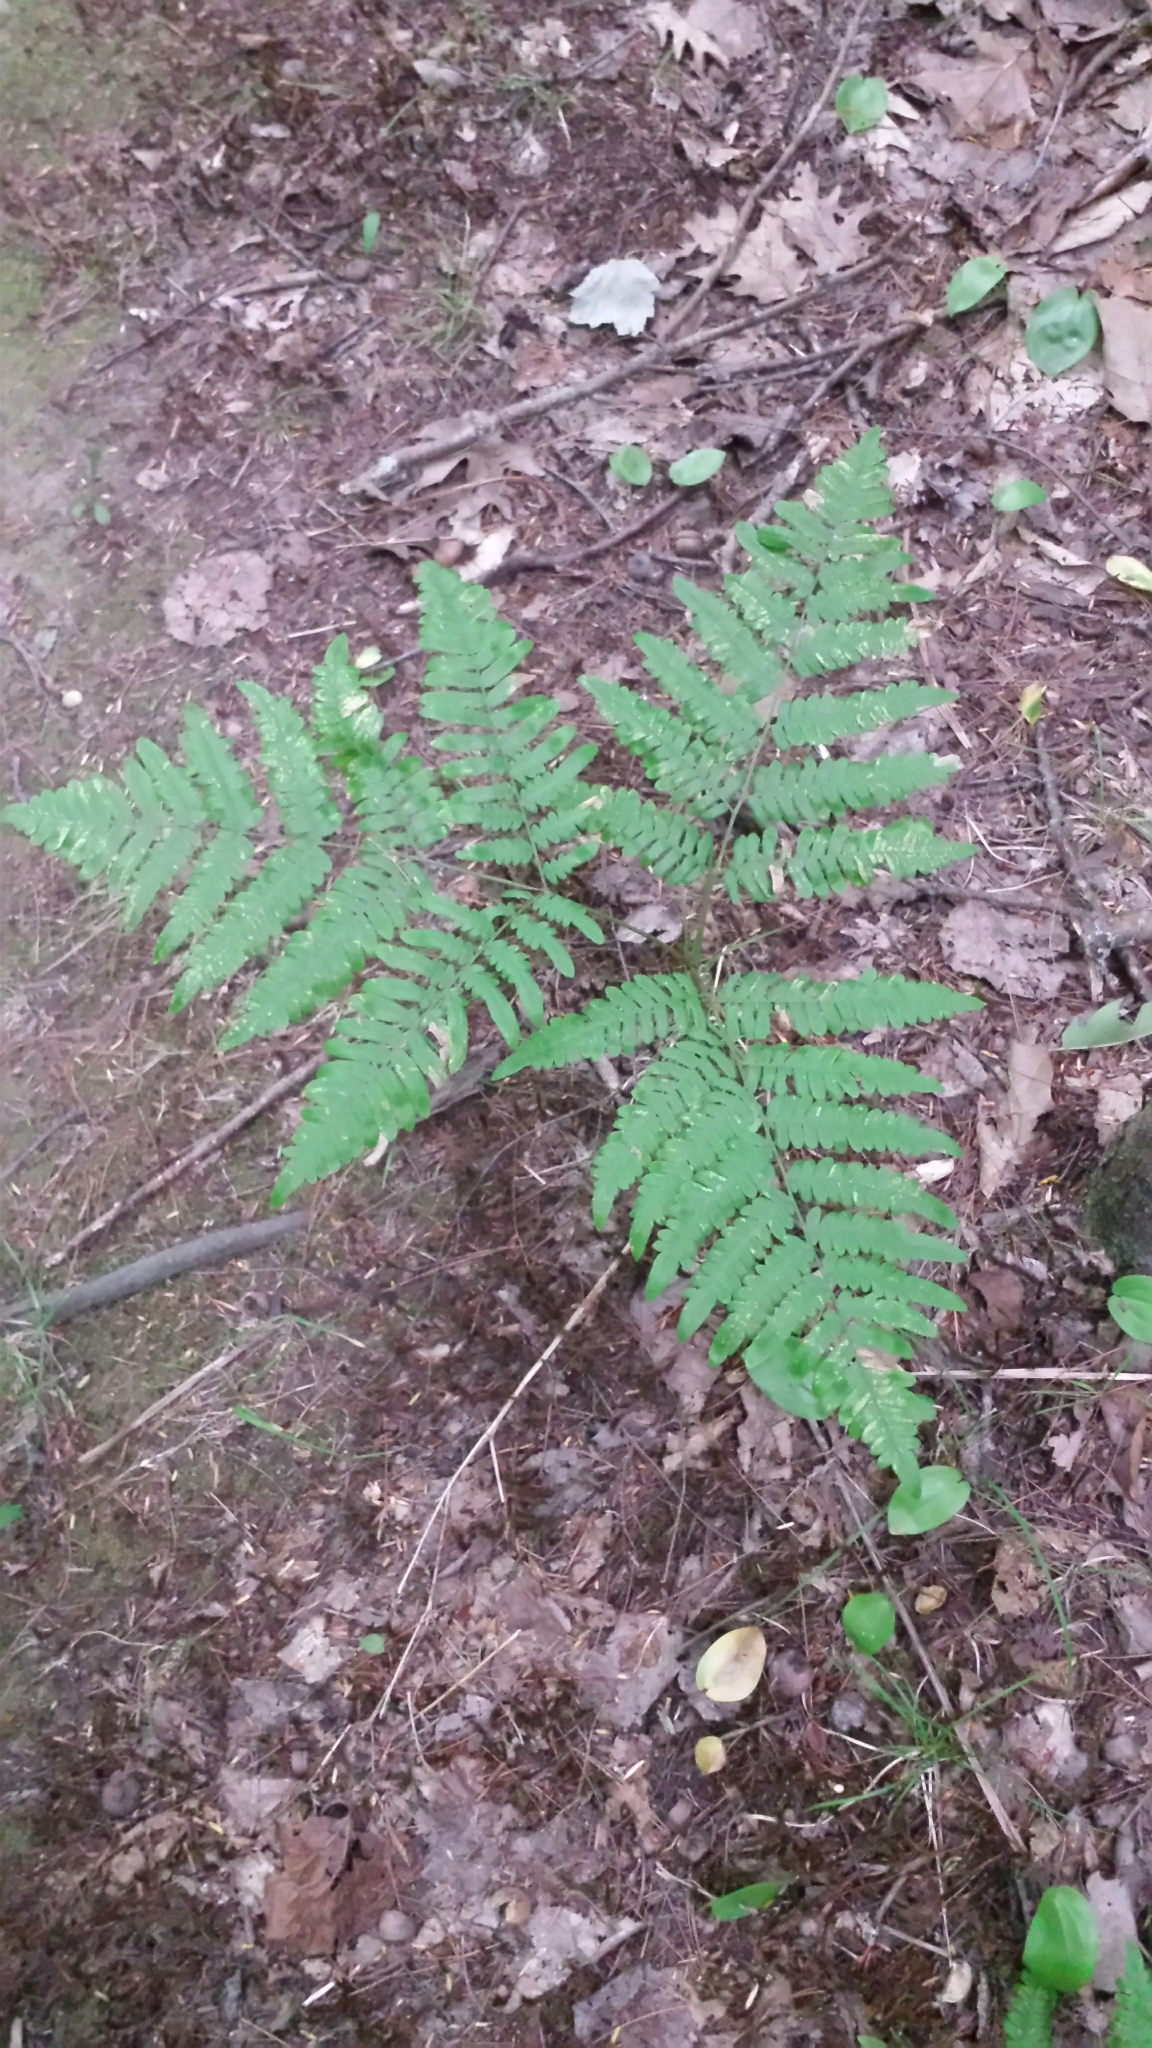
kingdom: Plantae
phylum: Tracheophyta
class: Polypodiopsida
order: Polypodiales
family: Dennstaedtiaceae
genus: Pteridium
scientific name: Pteridium aquilinum
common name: Bracken
